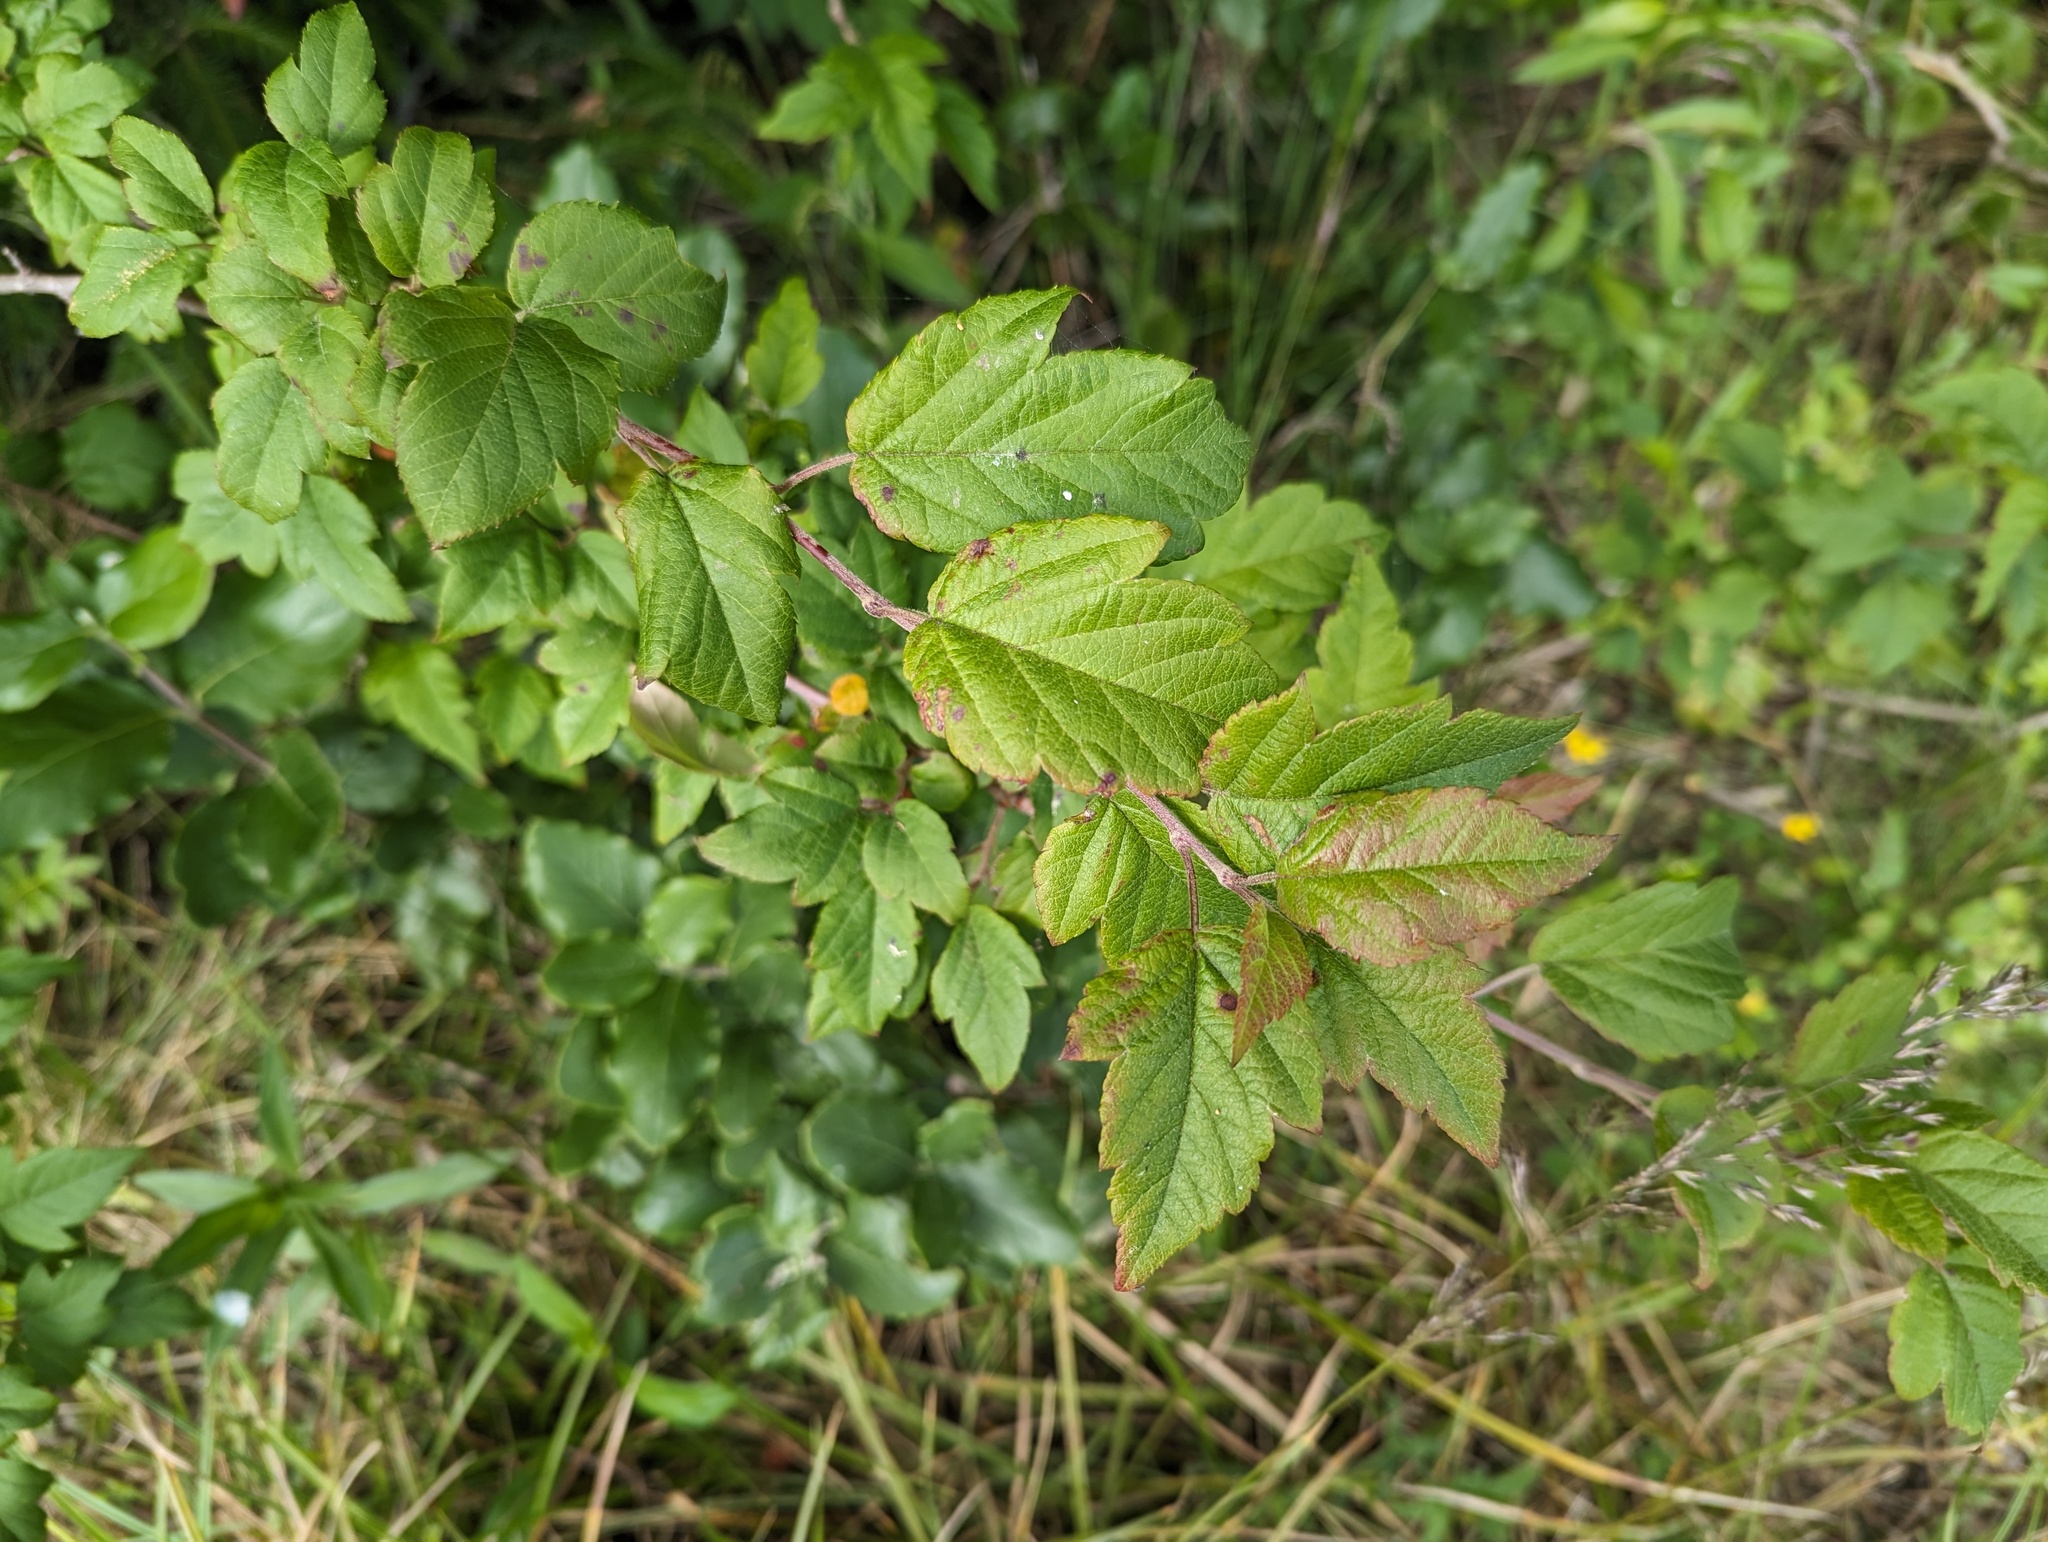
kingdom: Plantae
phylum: Tracheophyta
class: Magnoliopsida
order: Rosales
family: Rosaceae
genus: Malus
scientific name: Malus fusca
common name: Oregon crab apple
